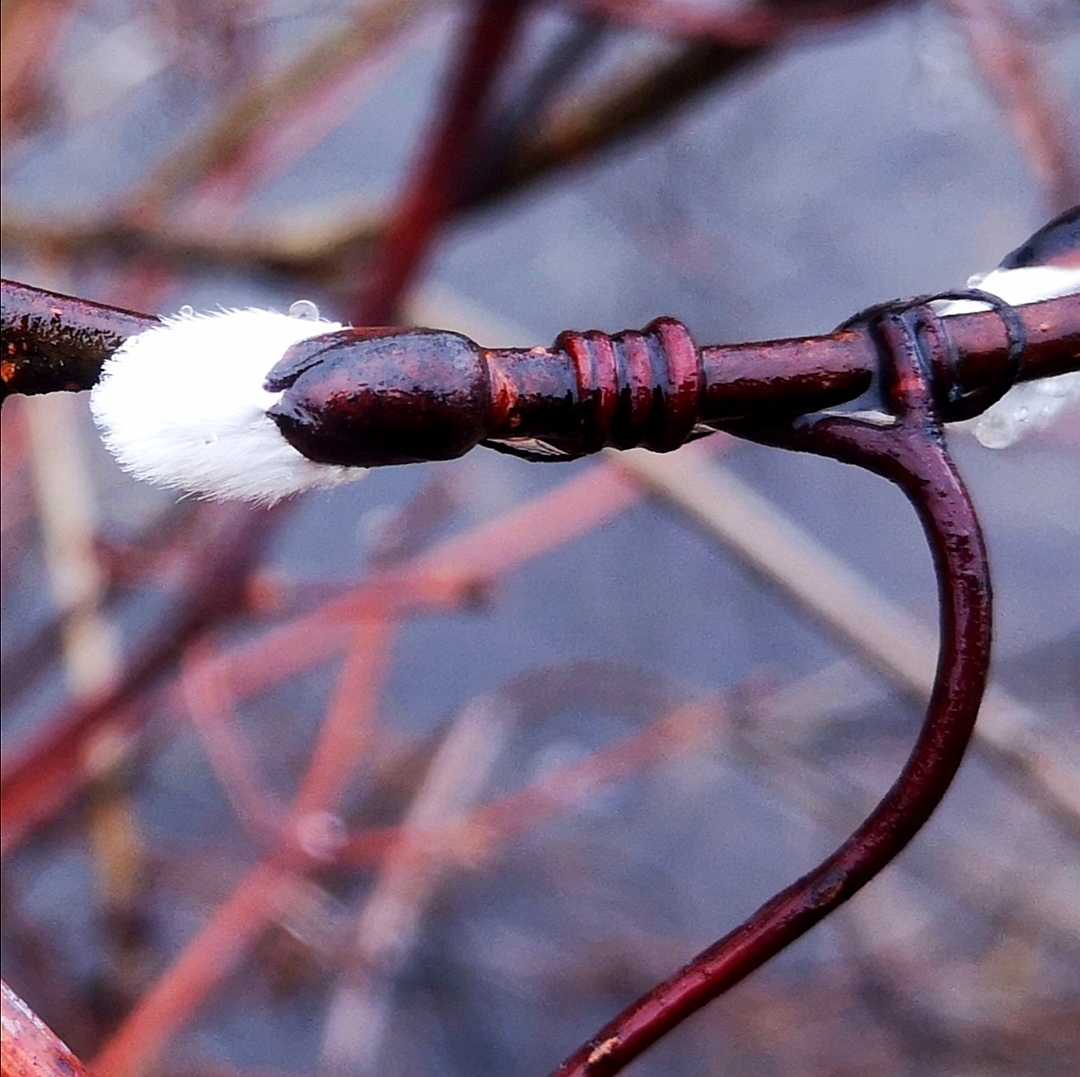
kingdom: Plantae
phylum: Tracheophyta
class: Magnoliopsida
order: Malpighiales
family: Salicaceae
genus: Salix
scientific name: Salix discolor
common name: Glaucous willow
